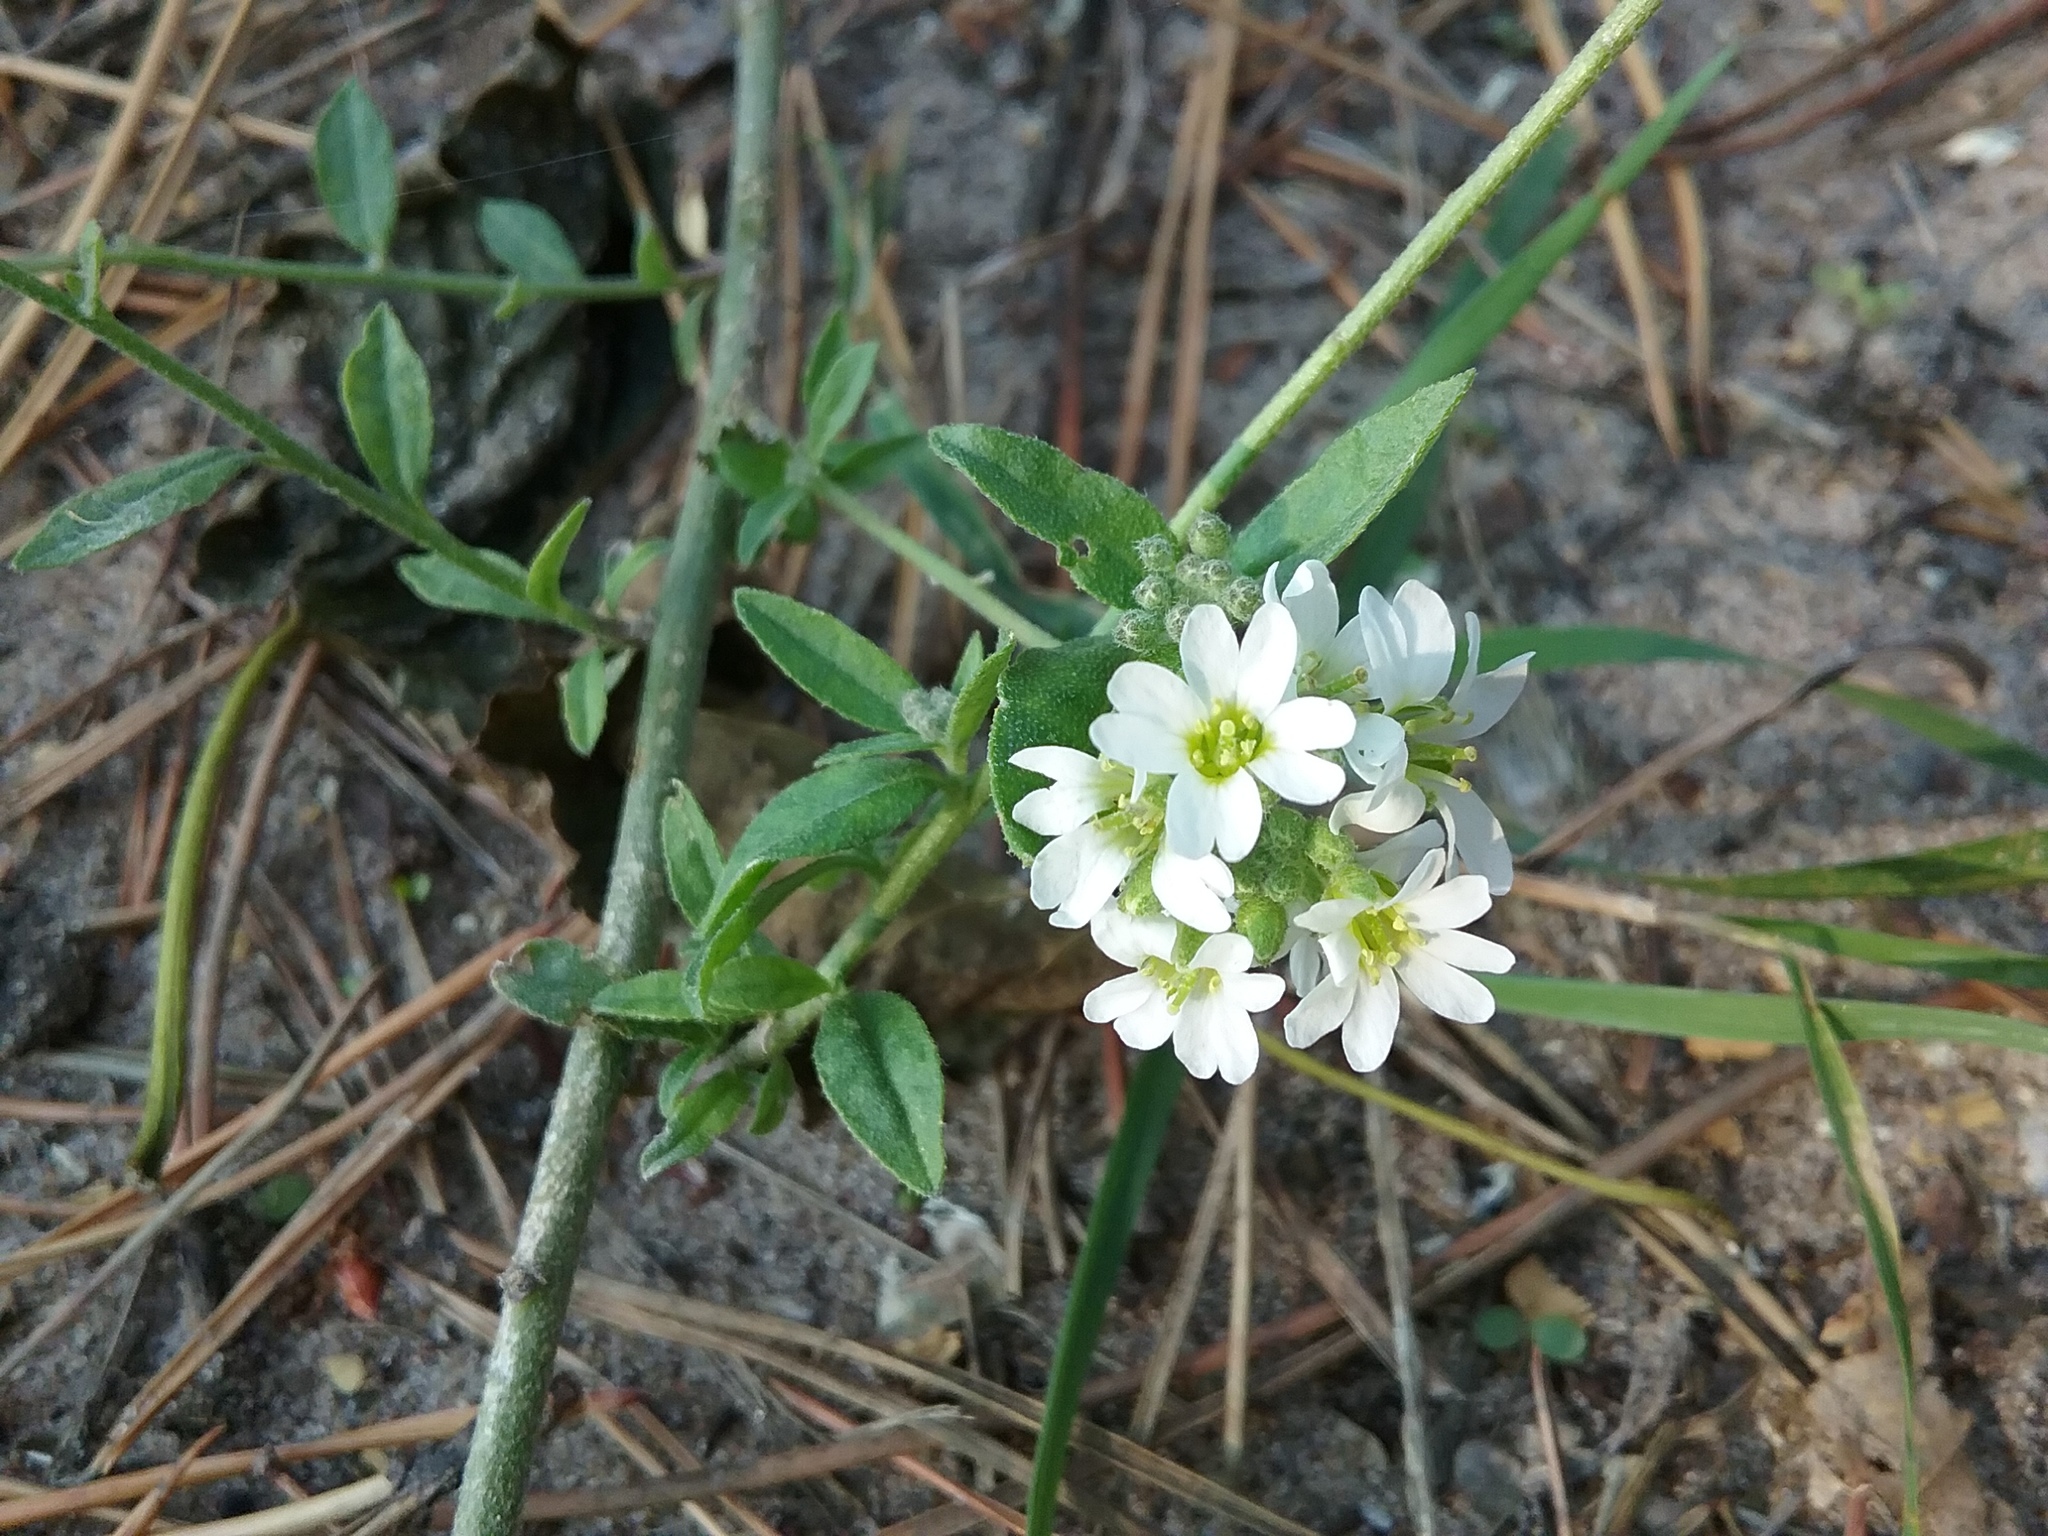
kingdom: Plantae
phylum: Tracheophyta
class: Magnoliopsida
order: Brassicales
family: Brassicaceae
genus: Berteroa
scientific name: Berteroa incana
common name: Hoary alison
